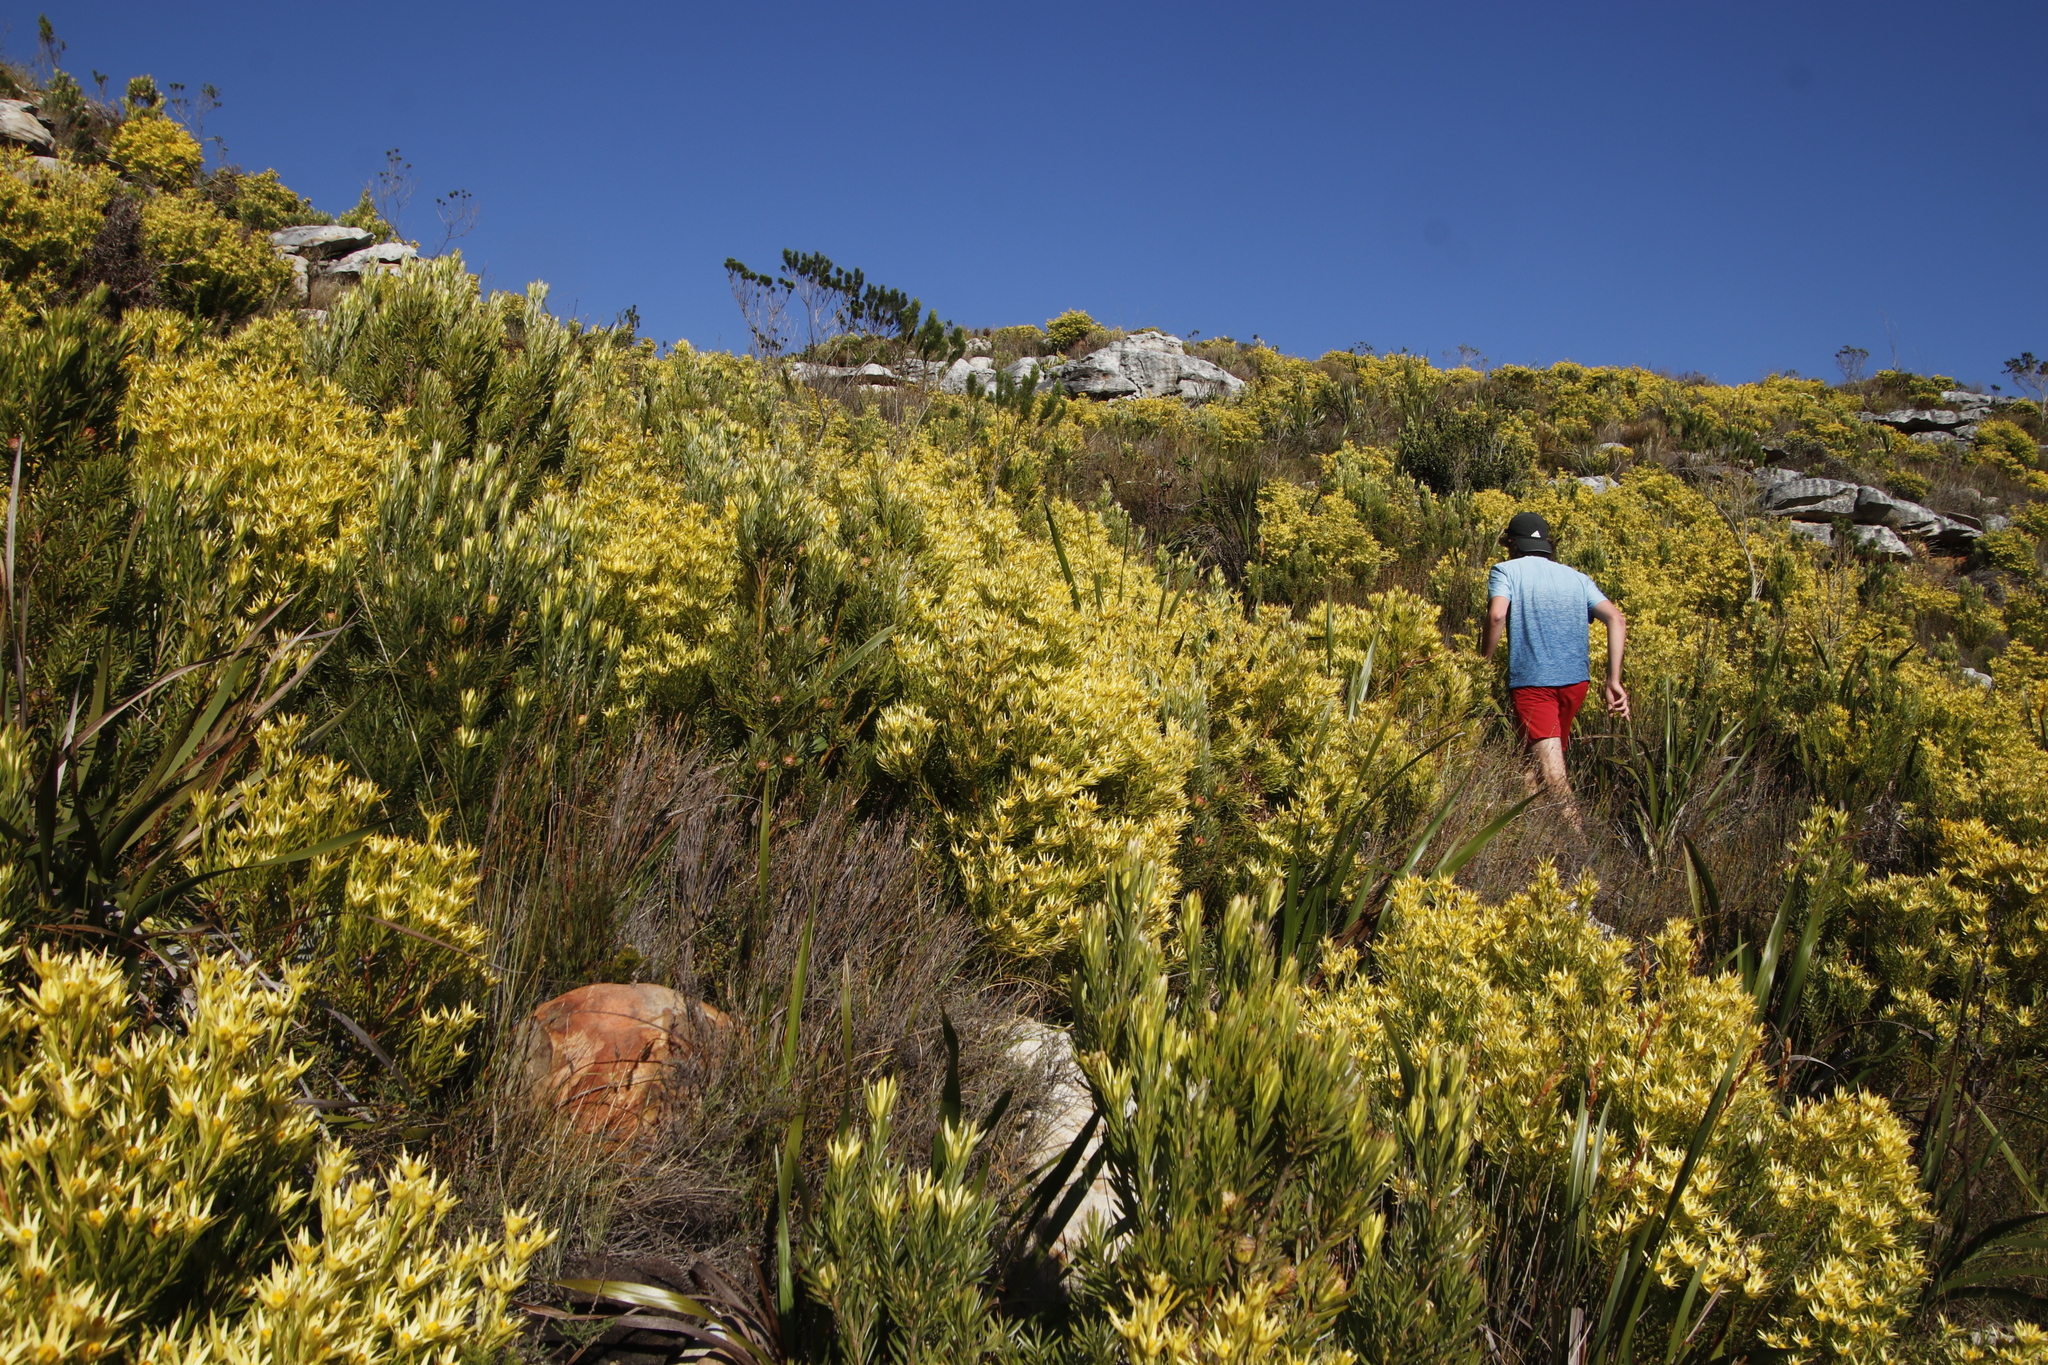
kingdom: Plantae
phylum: Tracheophyta
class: Magnoliopsida
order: Proteales
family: Proteaceae
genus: Leucadendron
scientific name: Leucadendron xanthoconus
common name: Sickle-leaf conebush
